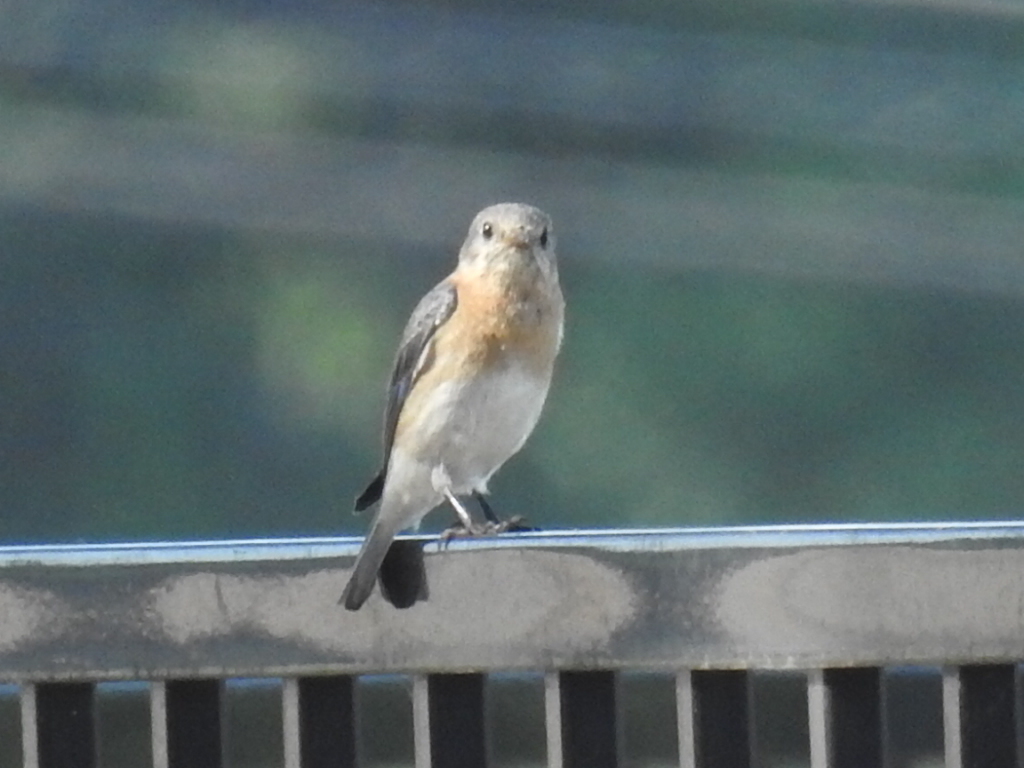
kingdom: Animalia
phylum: Chordata
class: Aves
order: Passeriformes
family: Turdidae
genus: Sialia
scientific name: Sialia sialis
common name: Eastern bluebird
